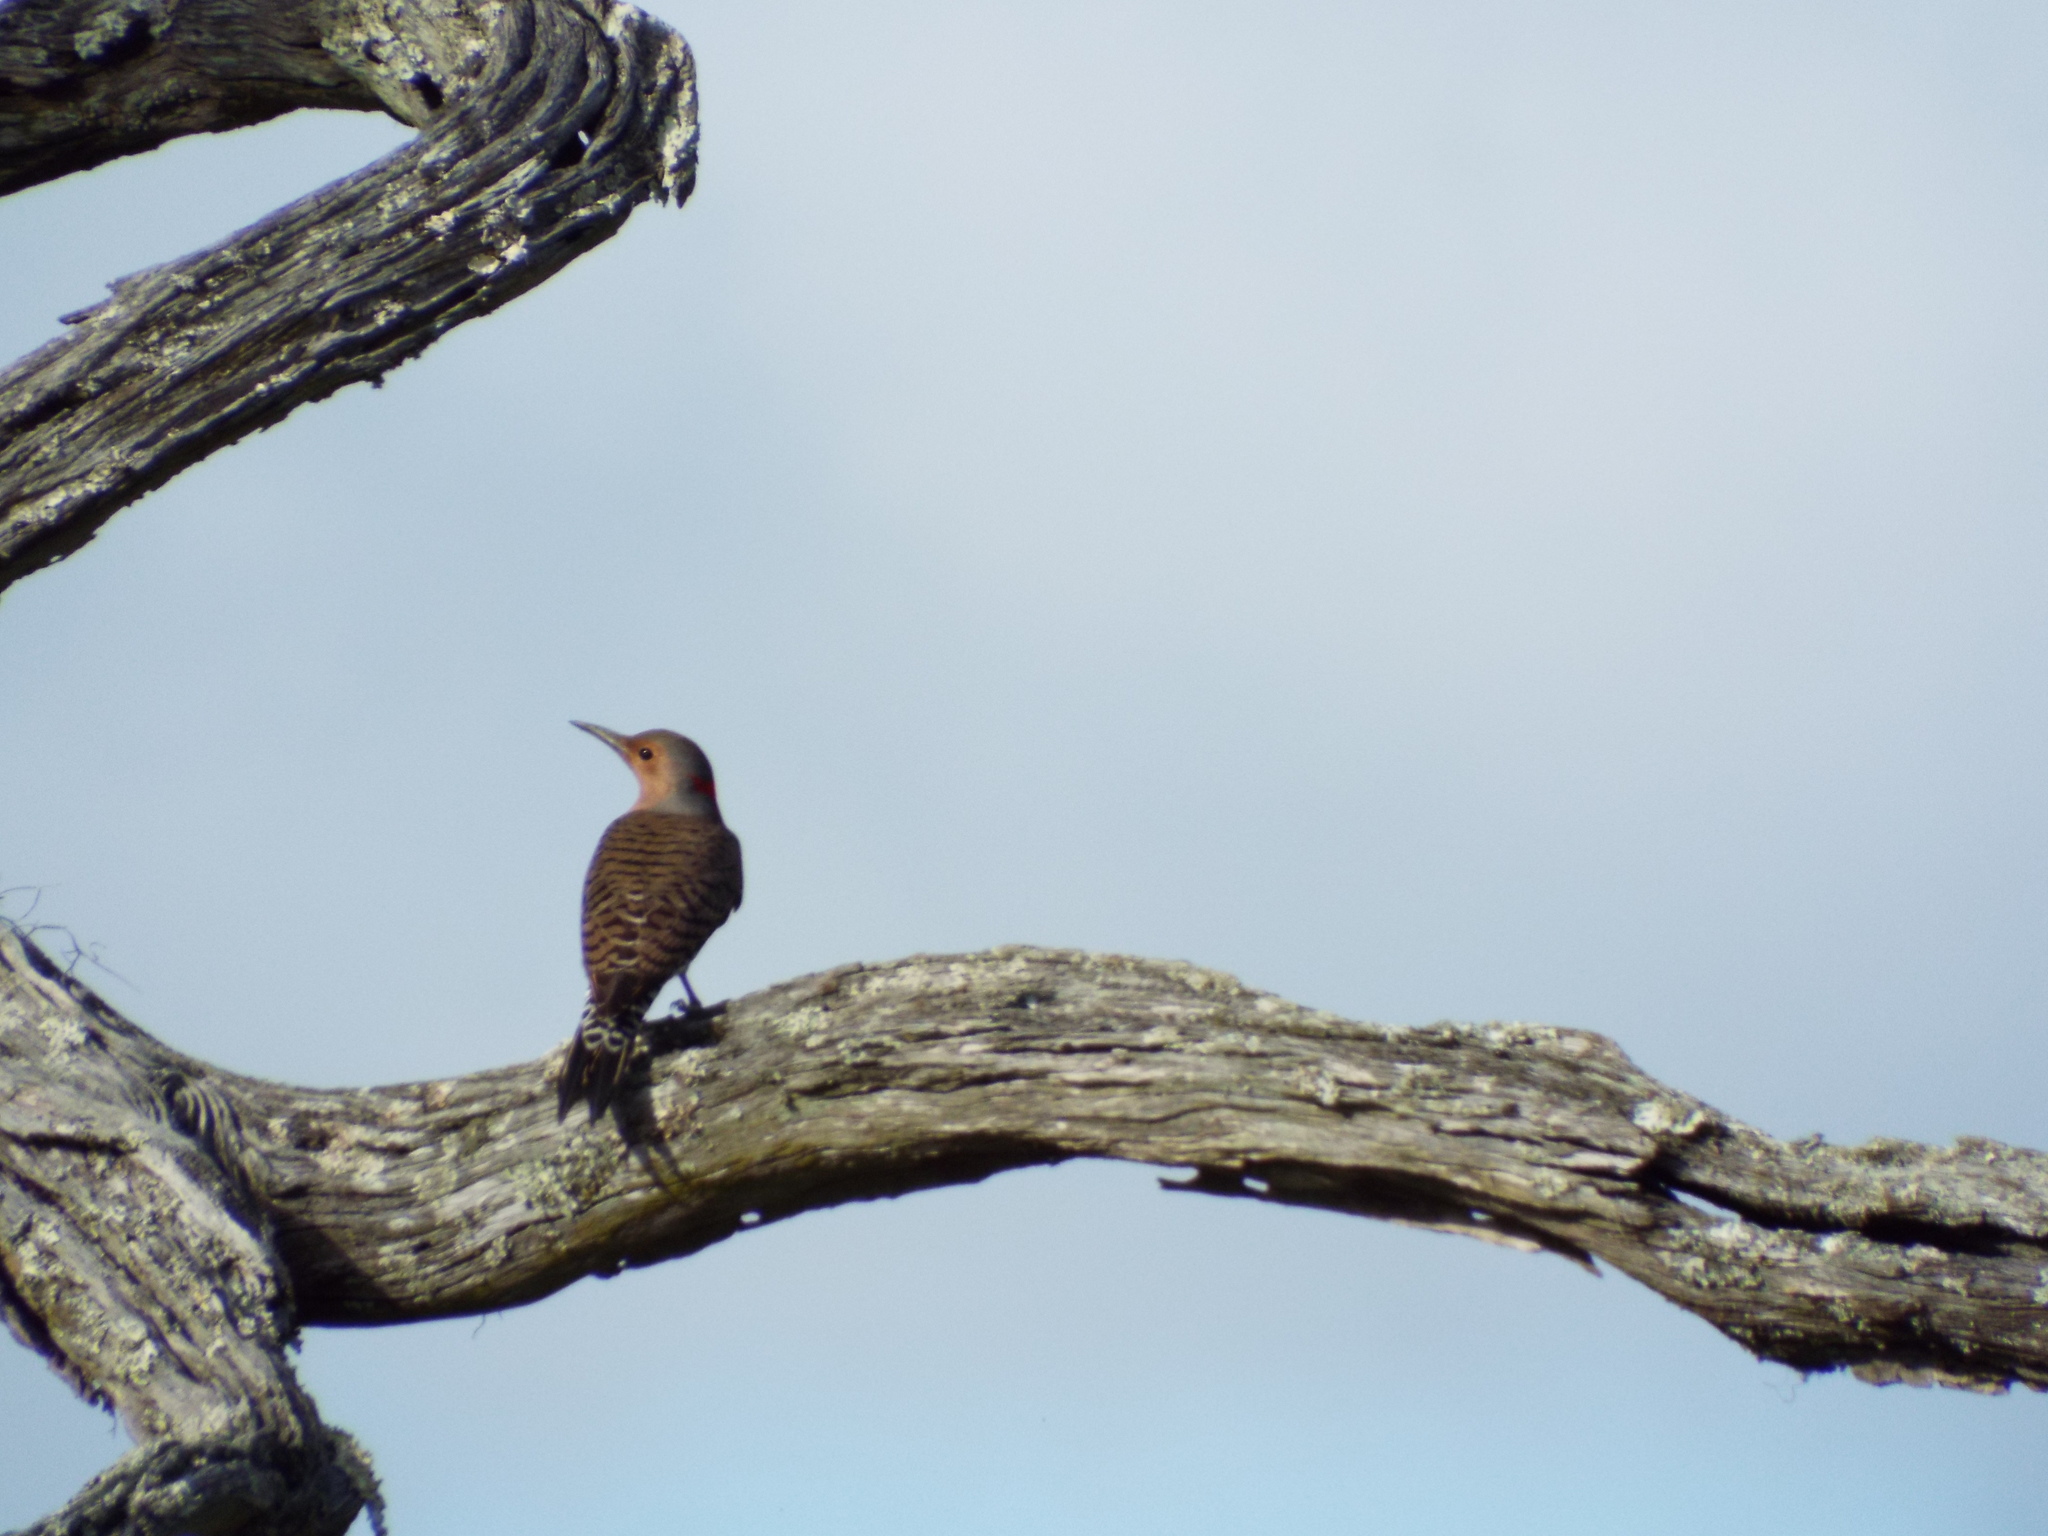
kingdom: Animalia
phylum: Chordata
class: Aves
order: Piciformes
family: Picidae
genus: Colaptes
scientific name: Colaptes auratus
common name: Northern flicker
